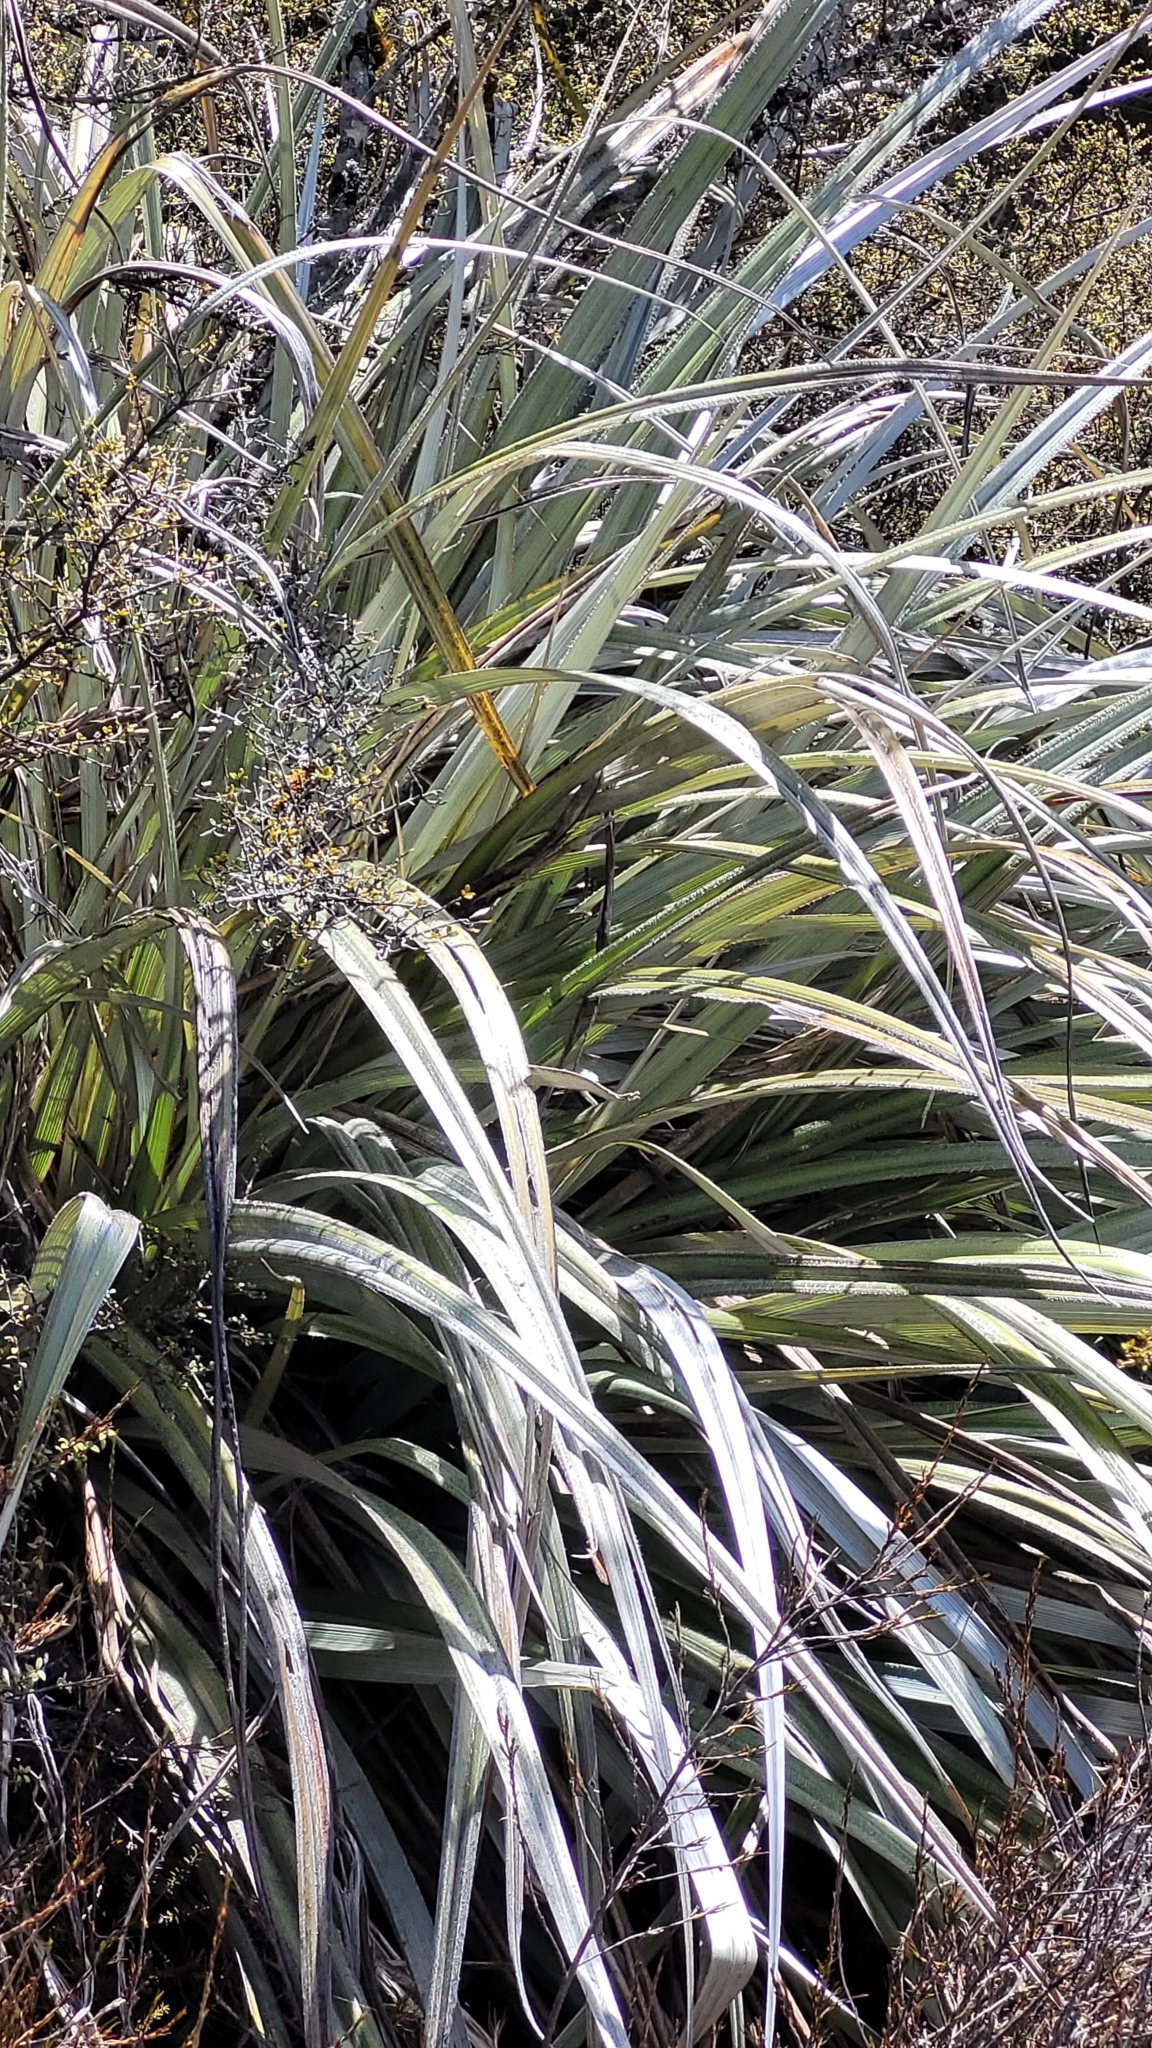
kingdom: Plantae
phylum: Tracheophyta
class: Liliopsida
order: Asparagales
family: Asteliaceae
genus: Astelia
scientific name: Astelia nervosa
